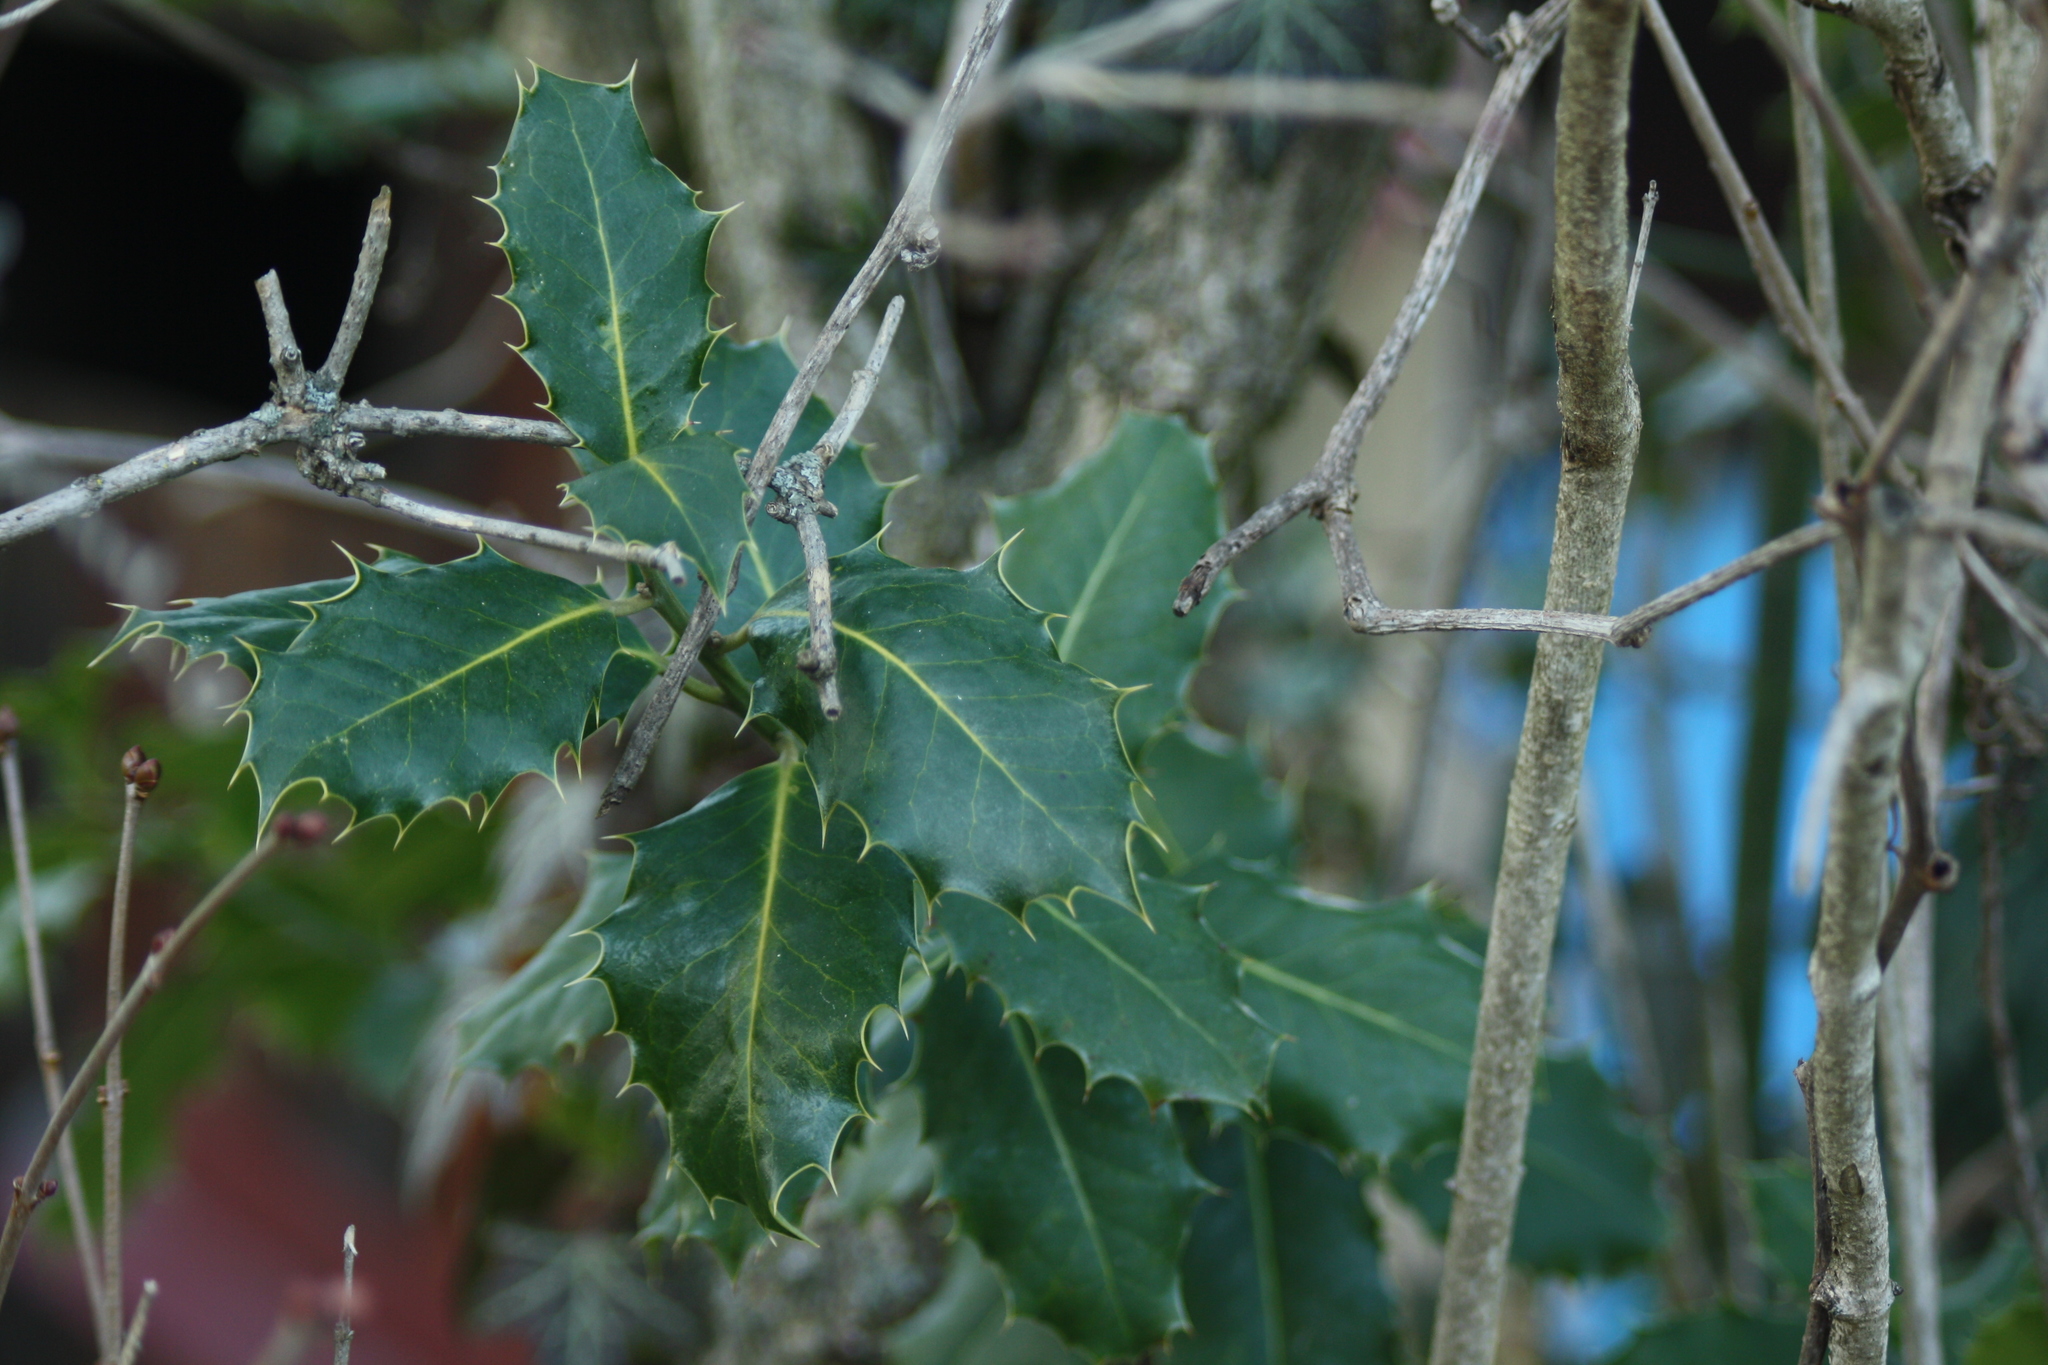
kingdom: Plantae
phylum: Tracheophyta
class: Magnoliopsida
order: Aquifoliales
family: Aquifoliaceae
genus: Ilex
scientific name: Ilex aquifolium
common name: English holly
